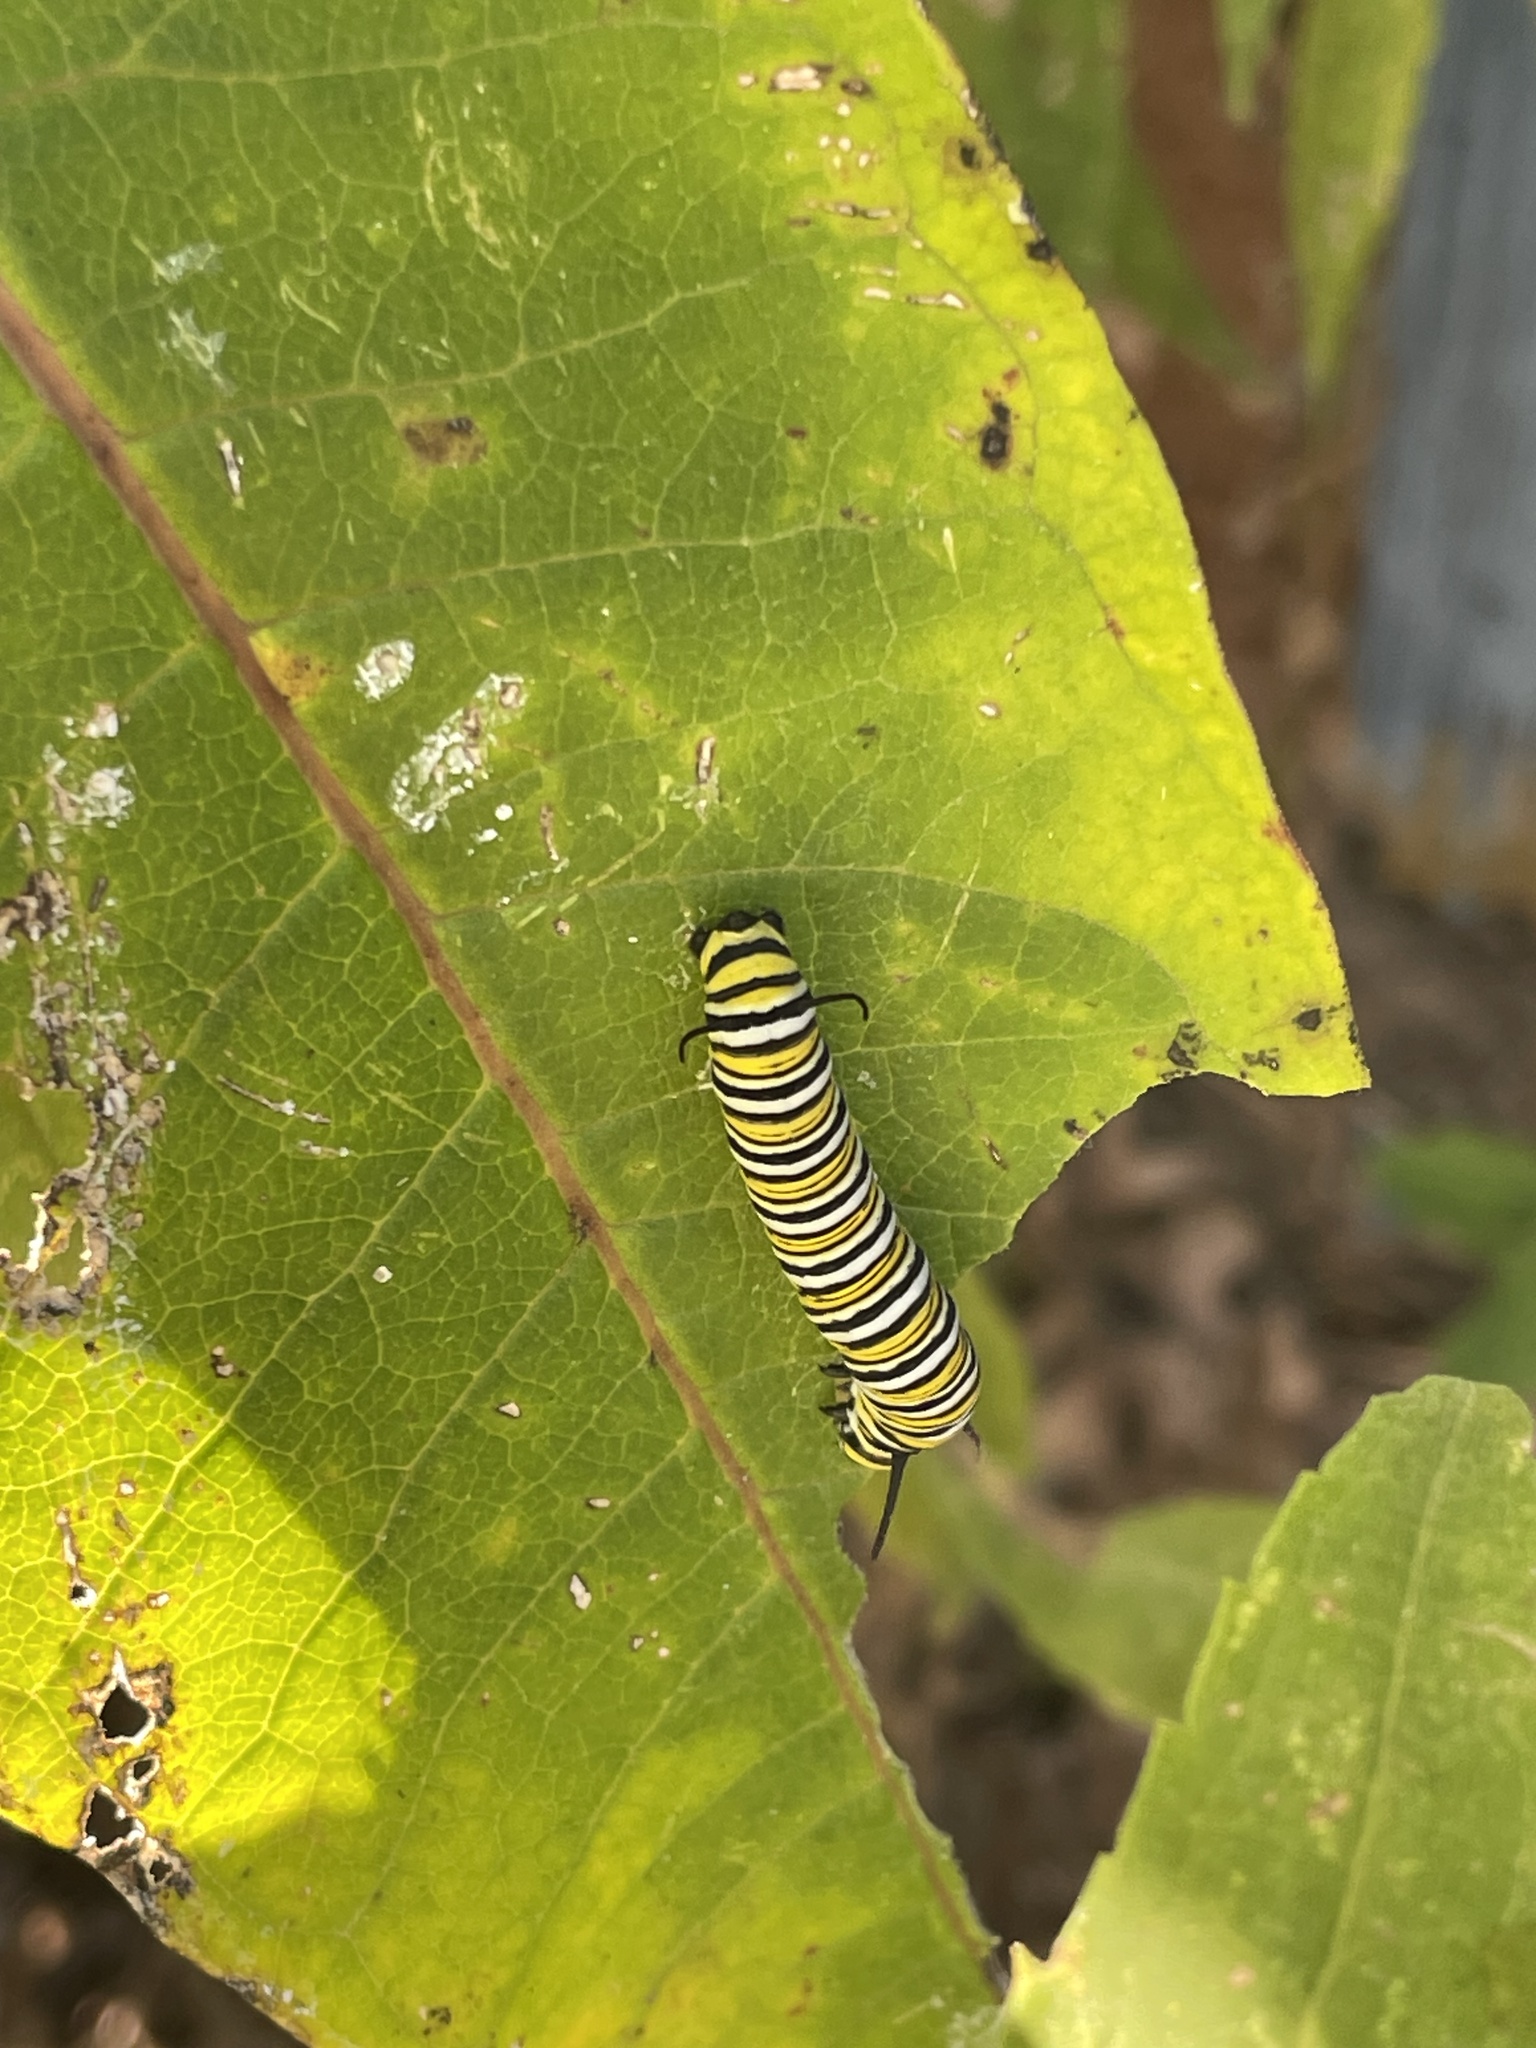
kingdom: Animalia
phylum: Arthropoda
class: Insecta
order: Lepidoptera
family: Nymphalidae
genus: Danaus
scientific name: Danaus plexippus
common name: Monarch
